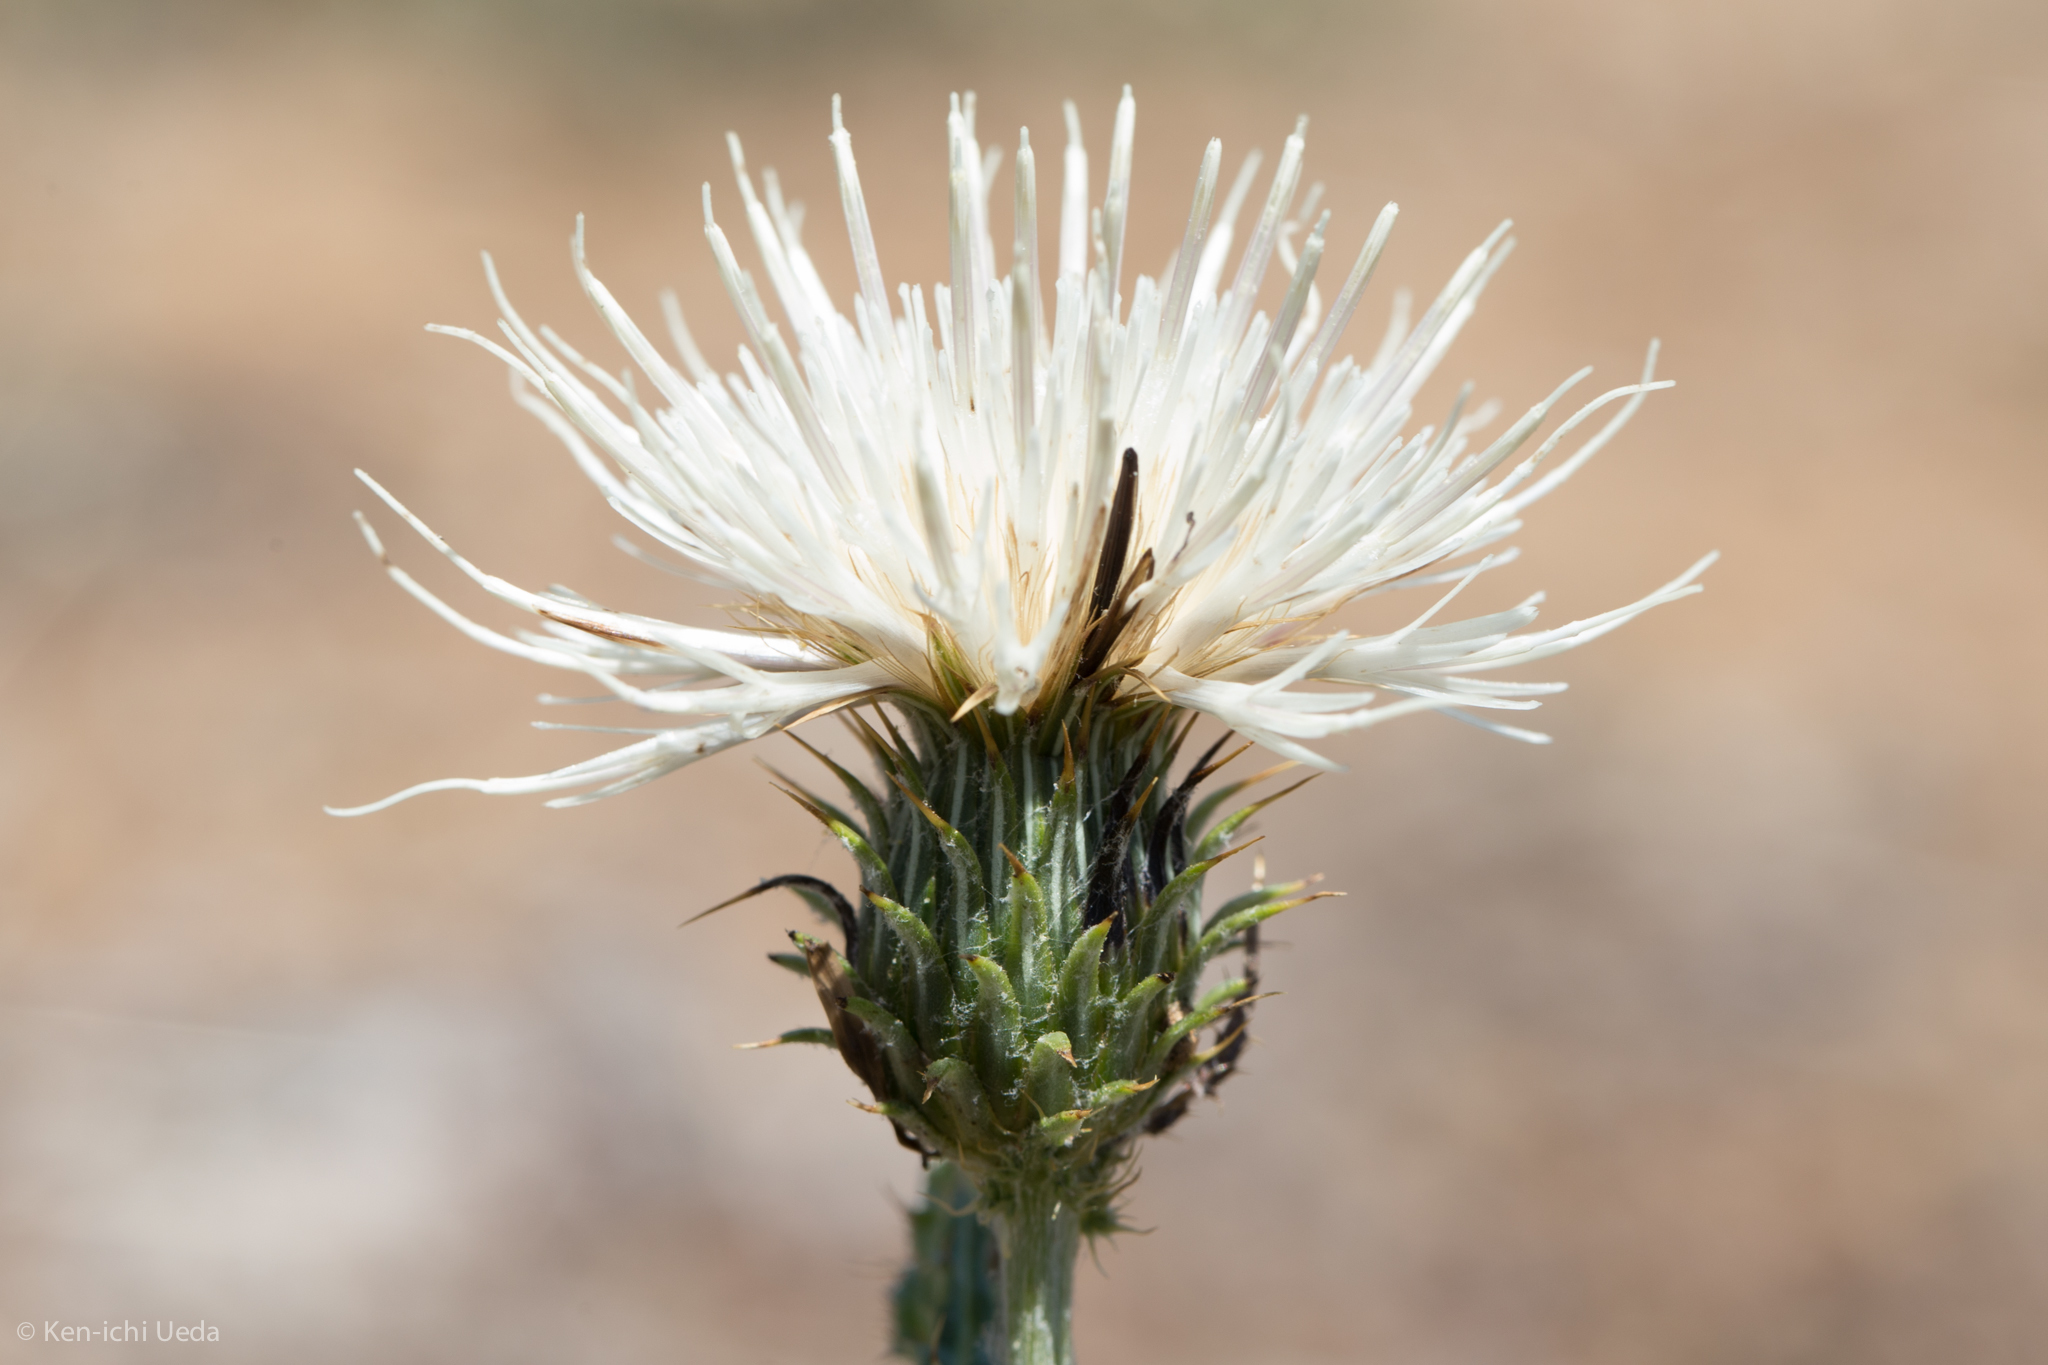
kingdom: Plantae
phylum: Tracheophyta
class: Magnoliopsida
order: Asterales
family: Asteraceae
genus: Cirsium
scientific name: Cirsium cymosum
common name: Peregrine thistle
